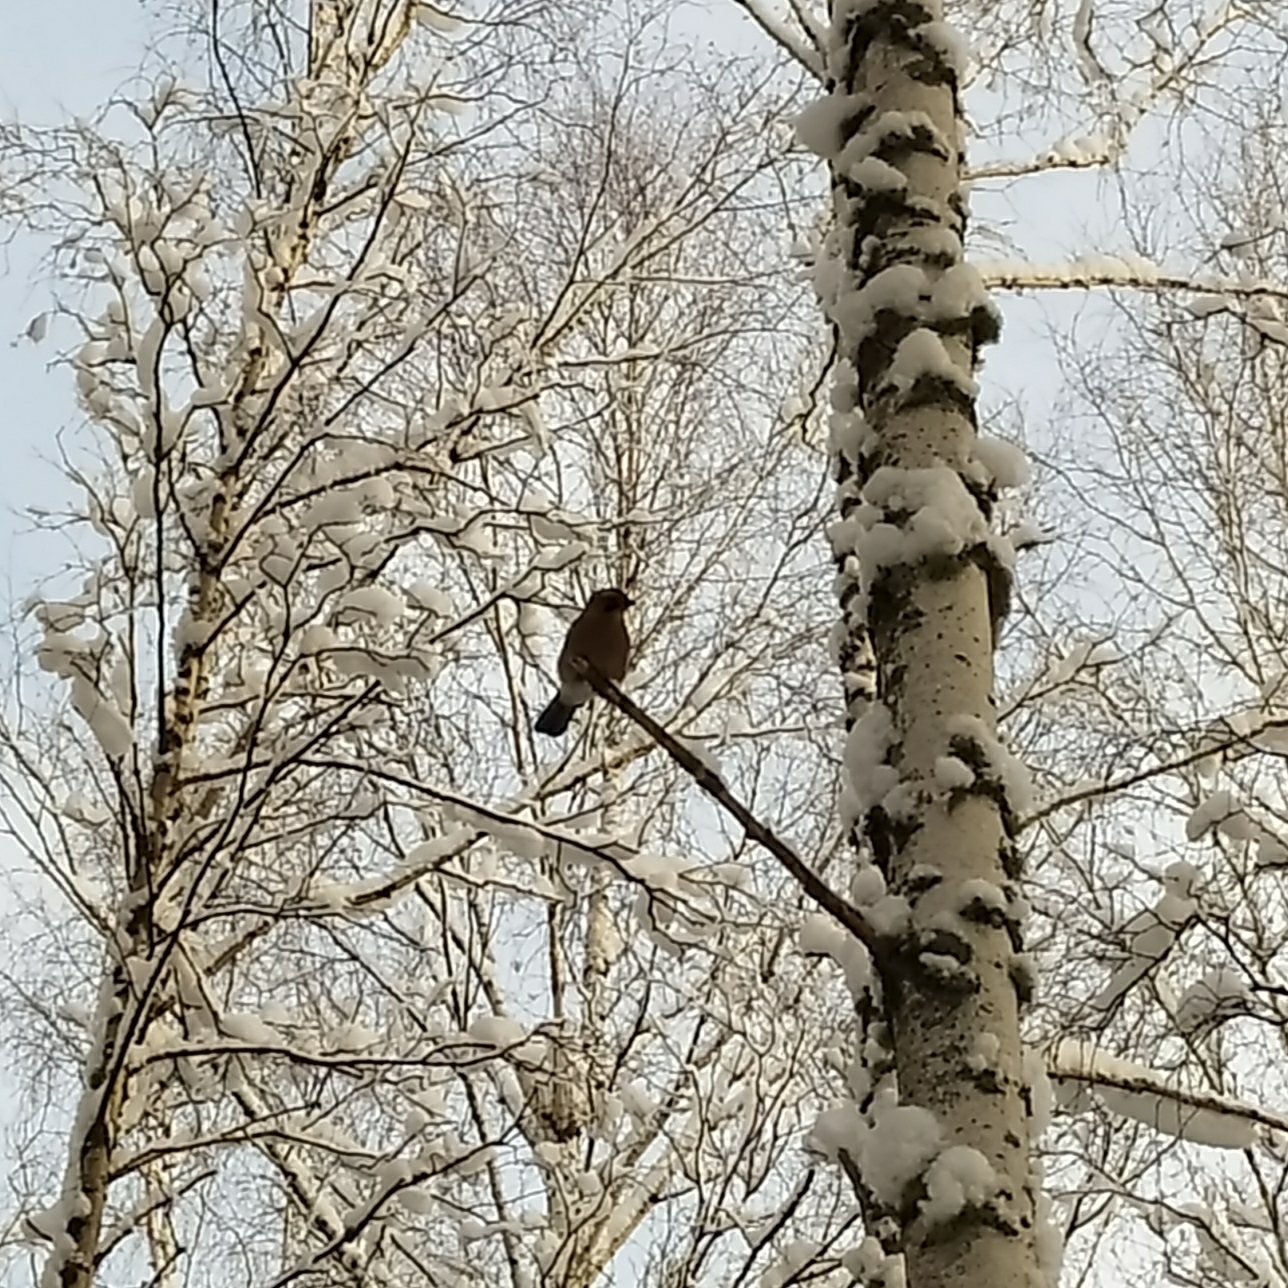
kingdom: Animalia
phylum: Chordata
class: Aves
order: Passeriformes
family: Corvidae
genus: Garrulus
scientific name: Garrulus glandarius
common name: Eurasian jay
